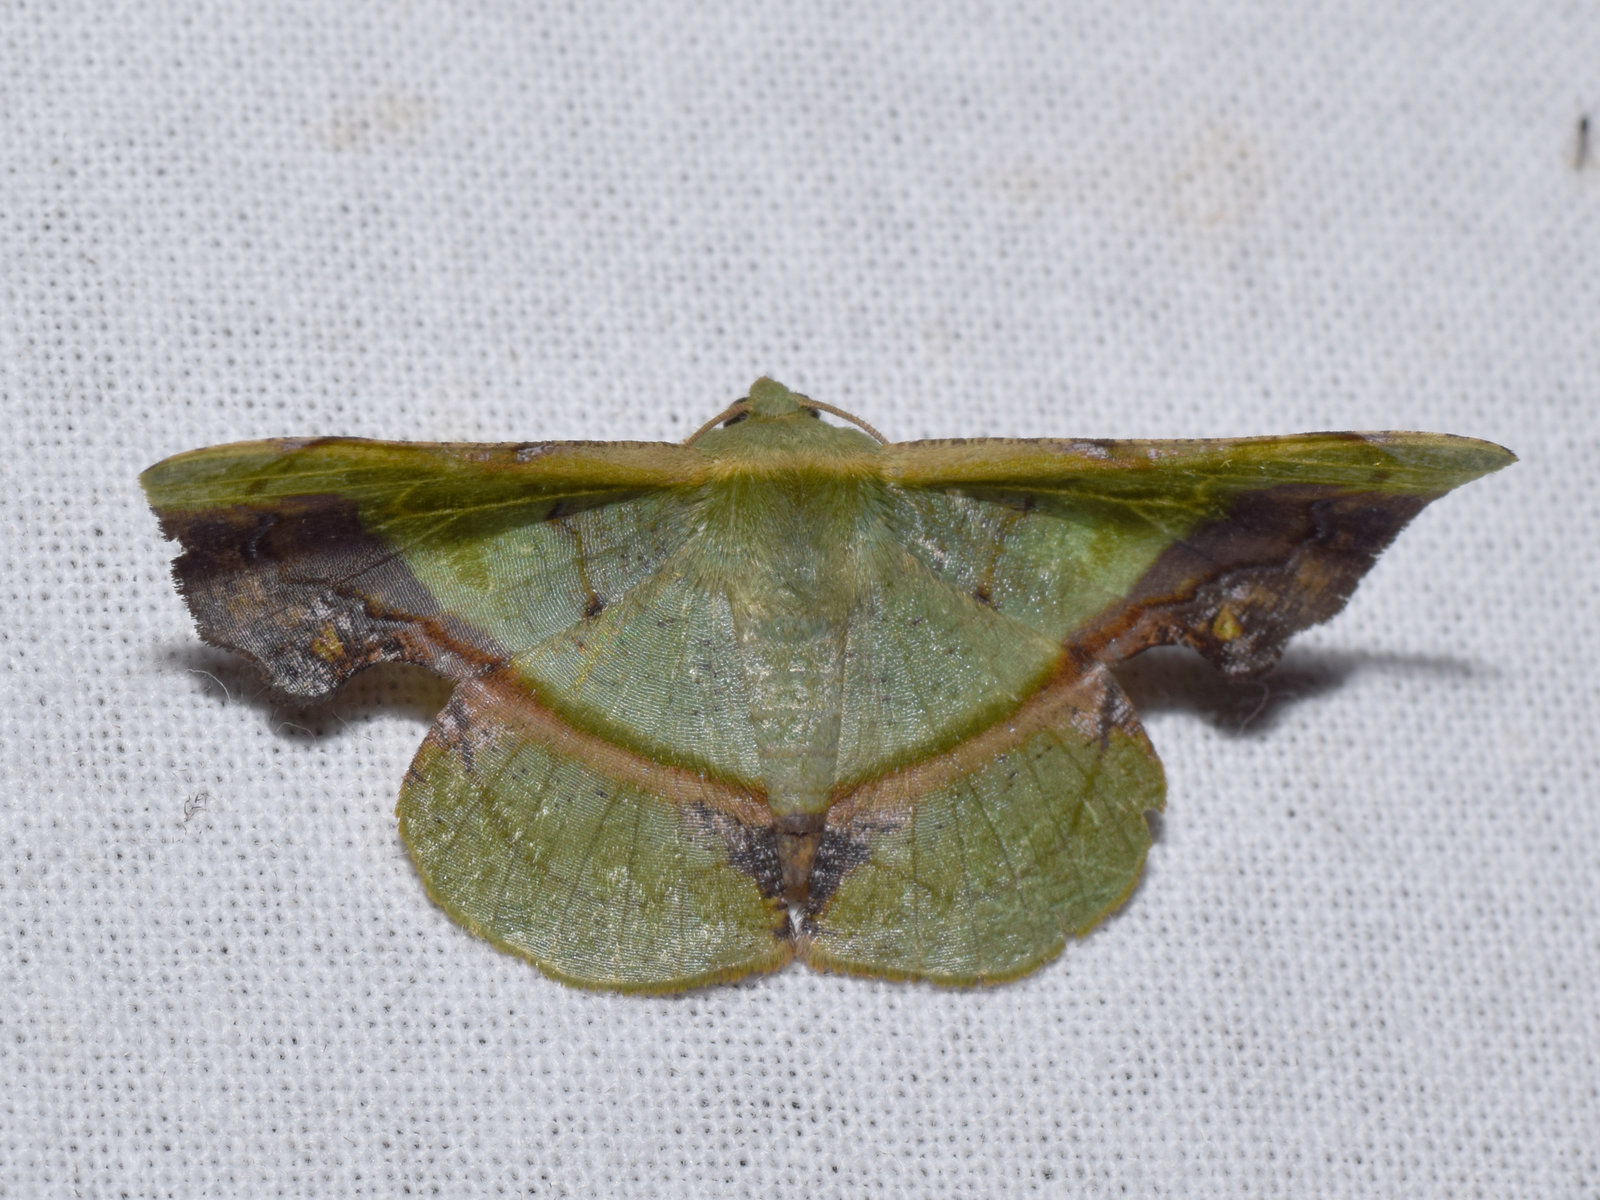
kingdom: Animalia
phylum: Arthropoda
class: Insecta
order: Lepidoptera
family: Geometridae
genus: Fascellina
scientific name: Fascellina plagiata
